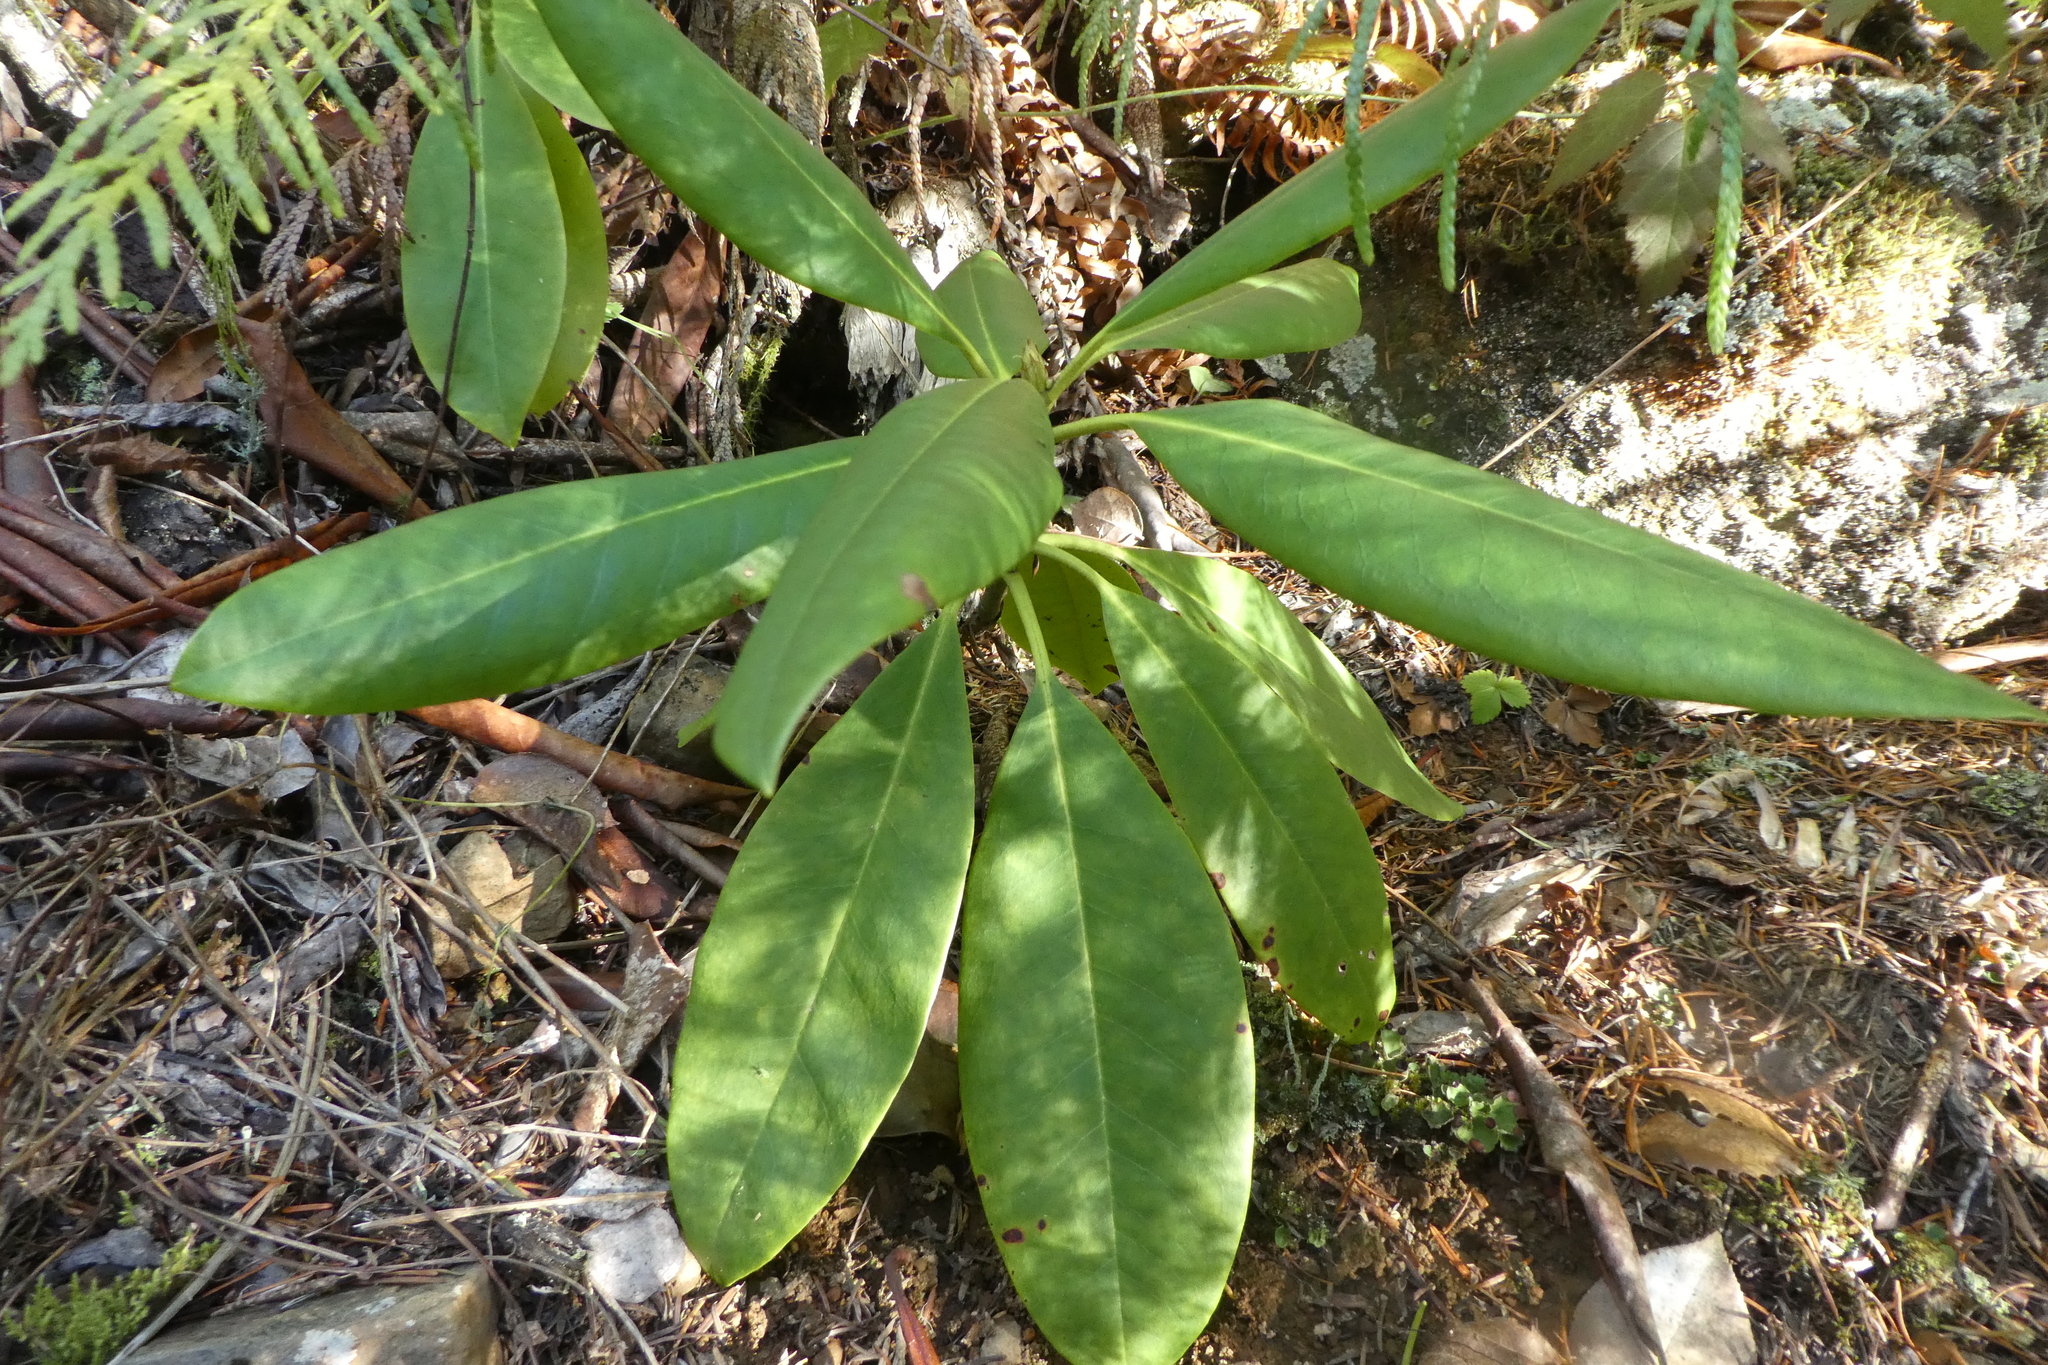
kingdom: Plantae
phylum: Tracheophyta
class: Magnoliopsida
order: Ericales
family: Ericaceae
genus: Rhododendron
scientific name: Rhododendron macrophyllum
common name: California rose bay
